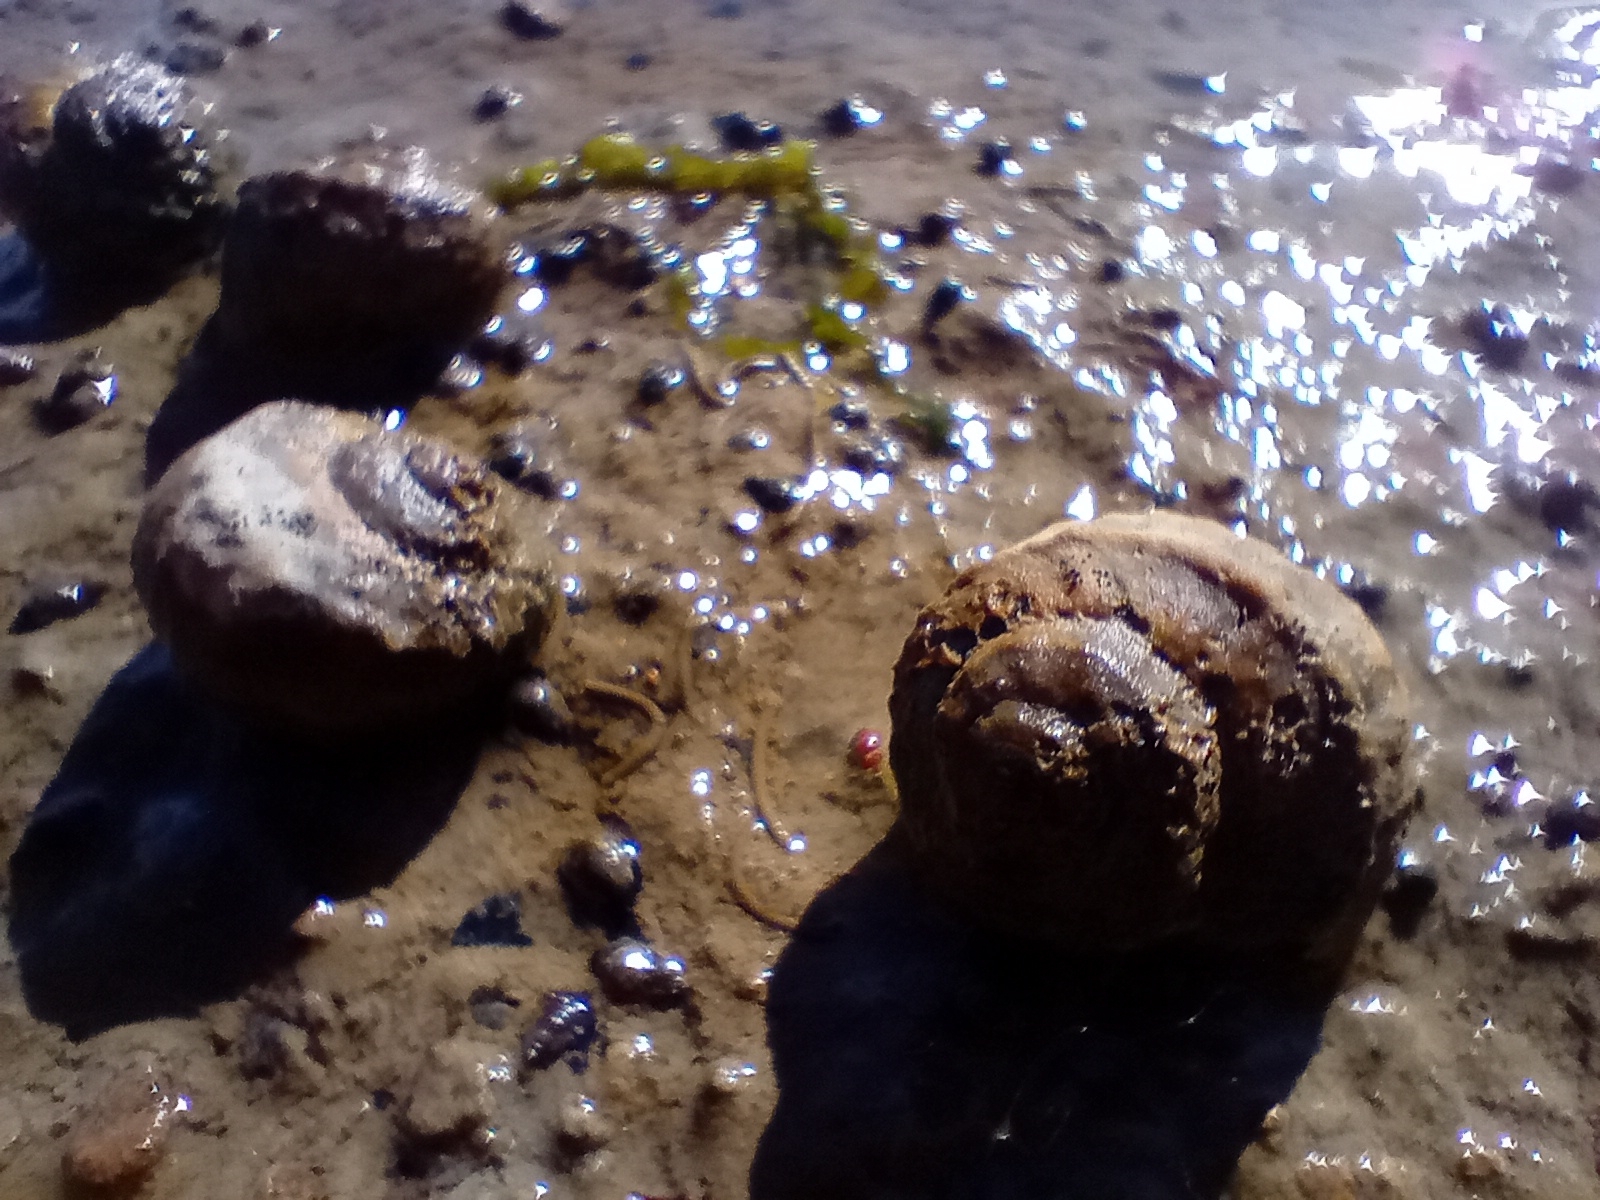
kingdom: Animalia
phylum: Mollusca
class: Gastropoda
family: Amphibolidae
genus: Amphibola
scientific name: Amphibola crenata
